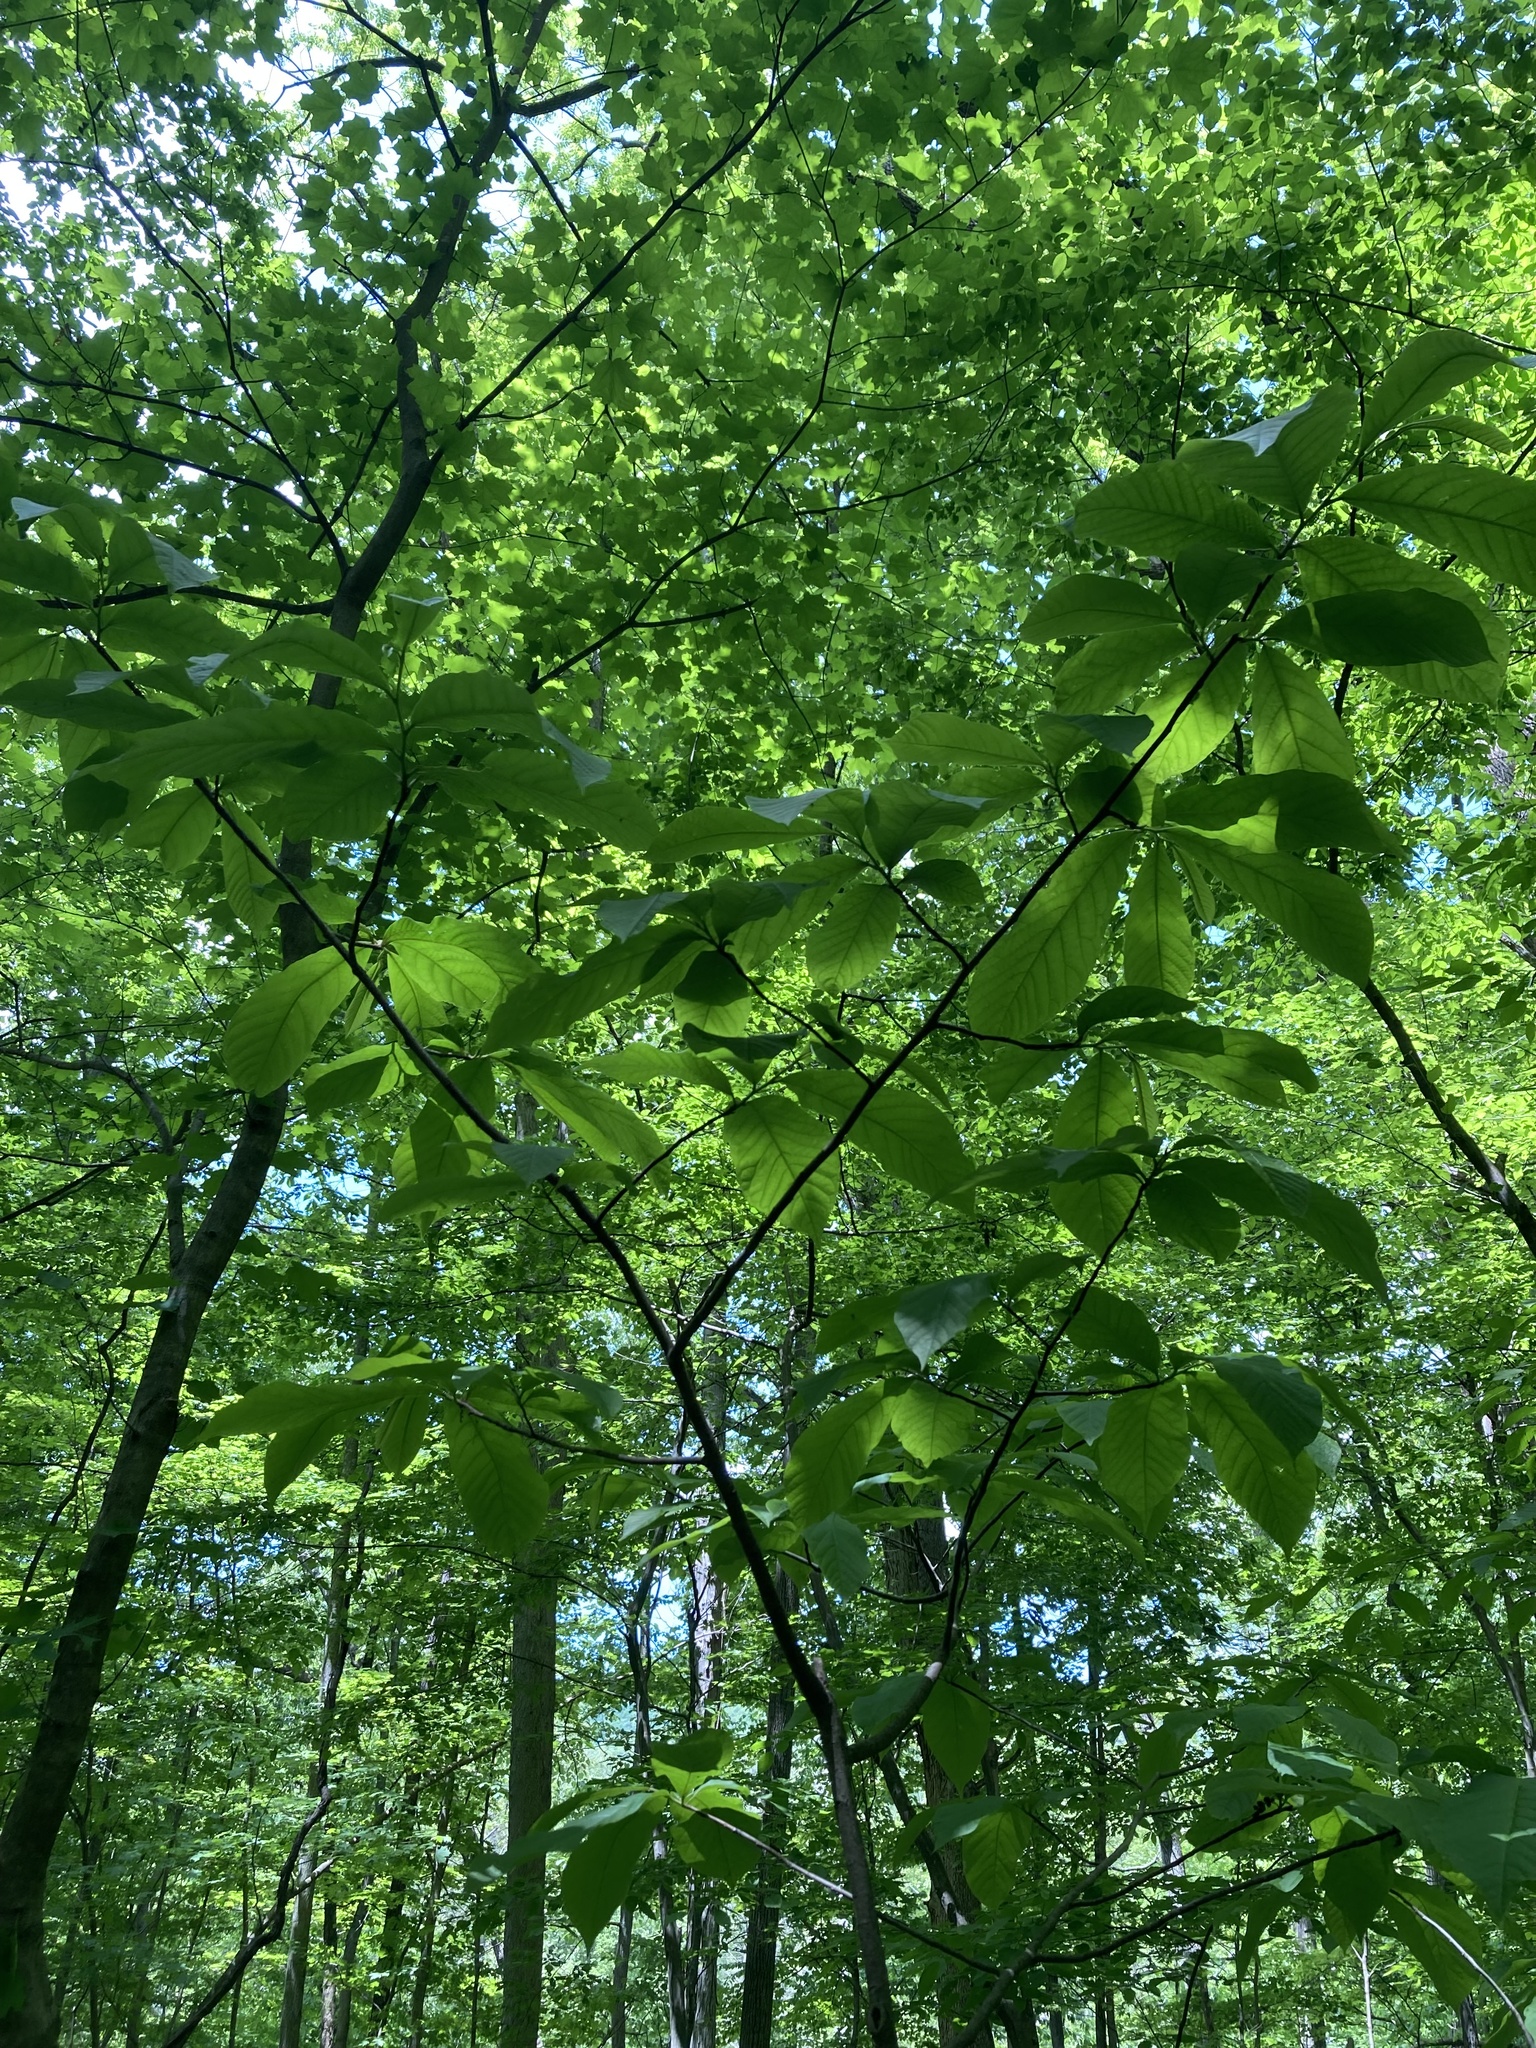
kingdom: Plantae
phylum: Tracheophyta
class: Magnoliopsida
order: Magnoliales
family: Annonaceae
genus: Asimina
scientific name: Asimina triloba
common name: Dog-banana
